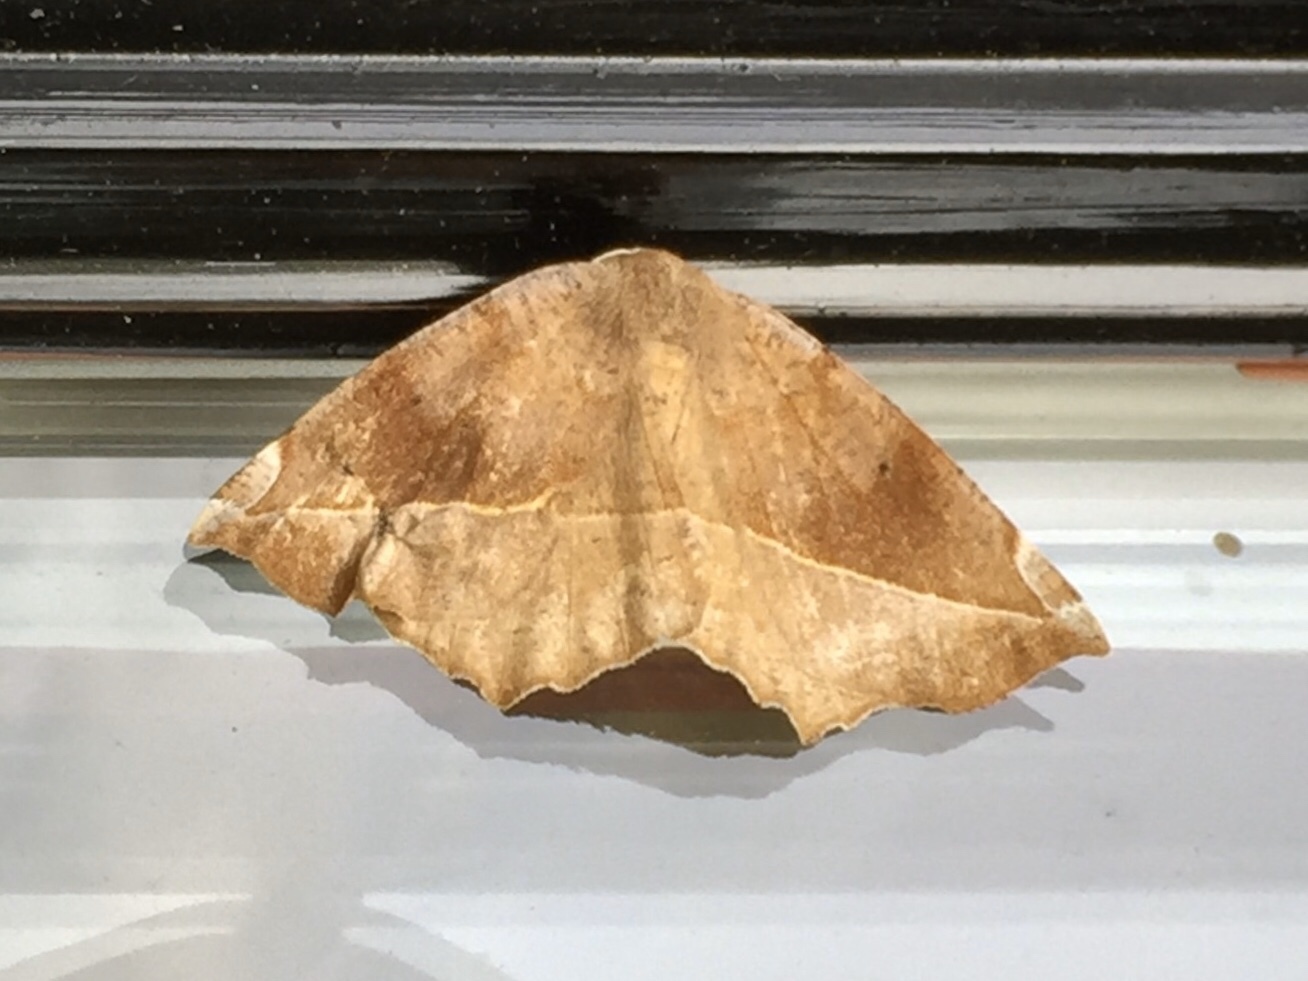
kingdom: Animalia
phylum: Arthropoda
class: Insecta
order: Lepidoptera
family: Geometridae
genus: Eutrapela
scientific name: Eutrapela clemataria
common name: Curved-toothed geometer
